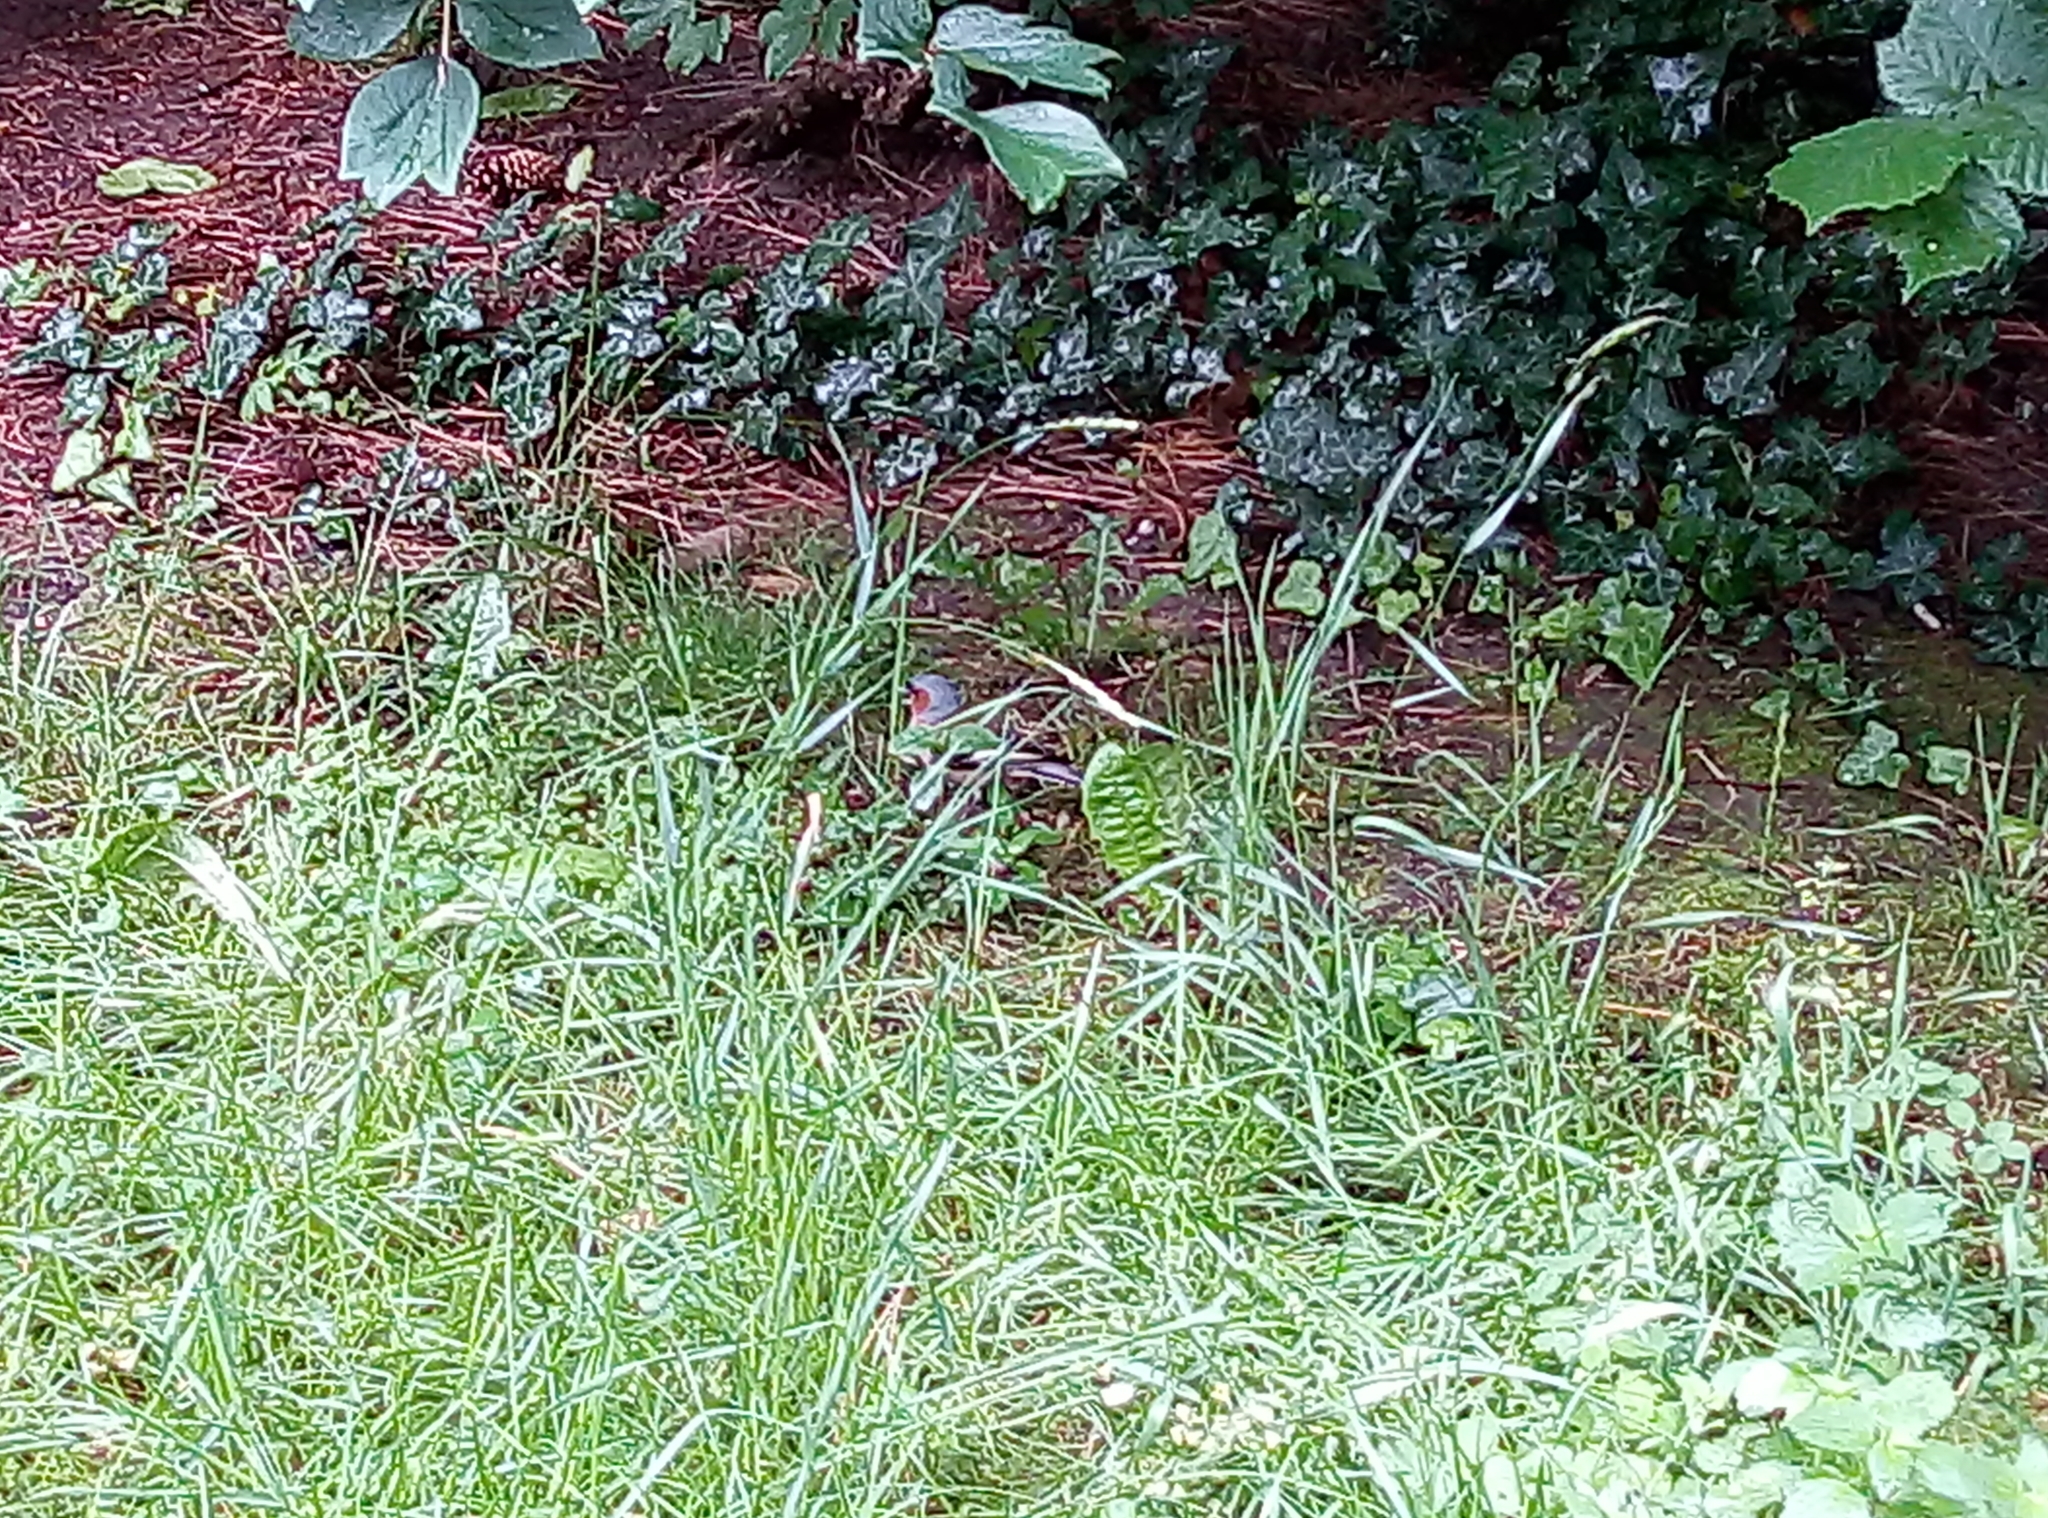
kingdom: Animalia
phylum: Chordata
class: Aves
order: Passeriformes
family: Fringillidae
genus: Fringilla
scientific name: Fringilla coelebs
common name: Common chaffinch
